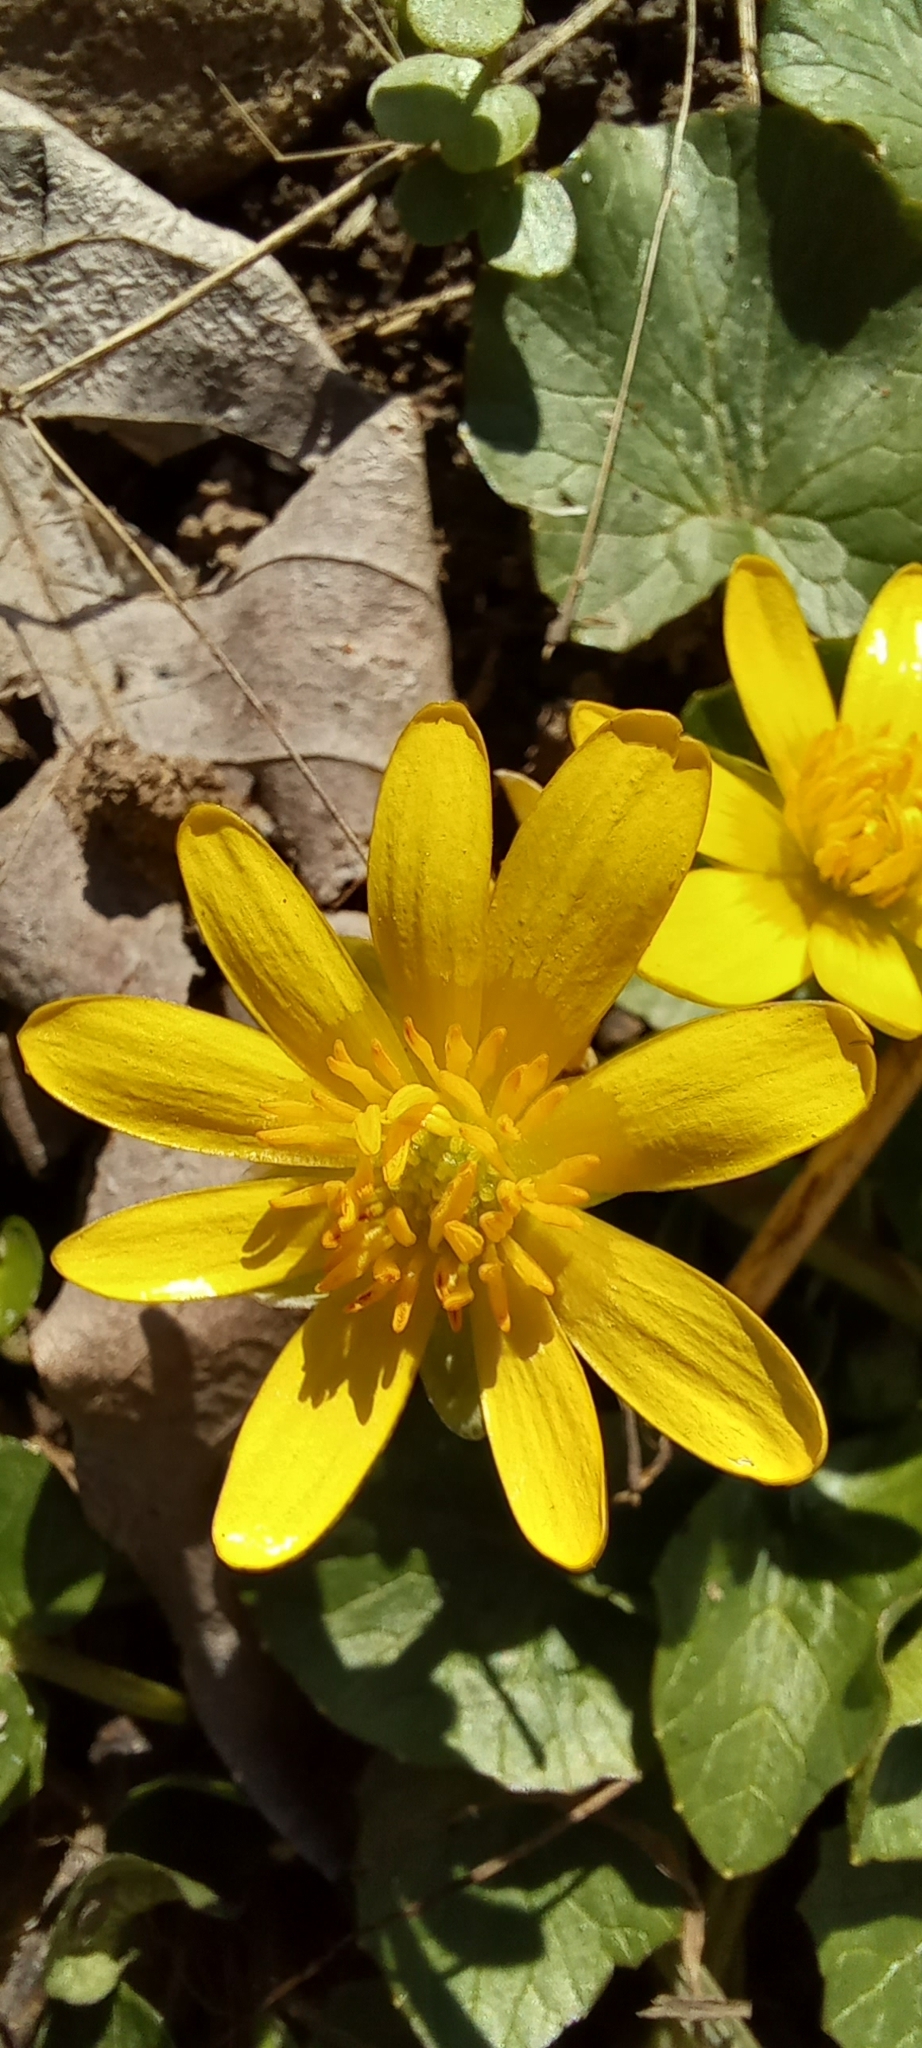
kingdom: Plantae
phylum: Tracheophyta
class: Magnoliopsida
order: Ranunculales
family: Ranunculaceae
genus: Ficaria
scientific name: Ficaria verna
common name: Lesser celandine
